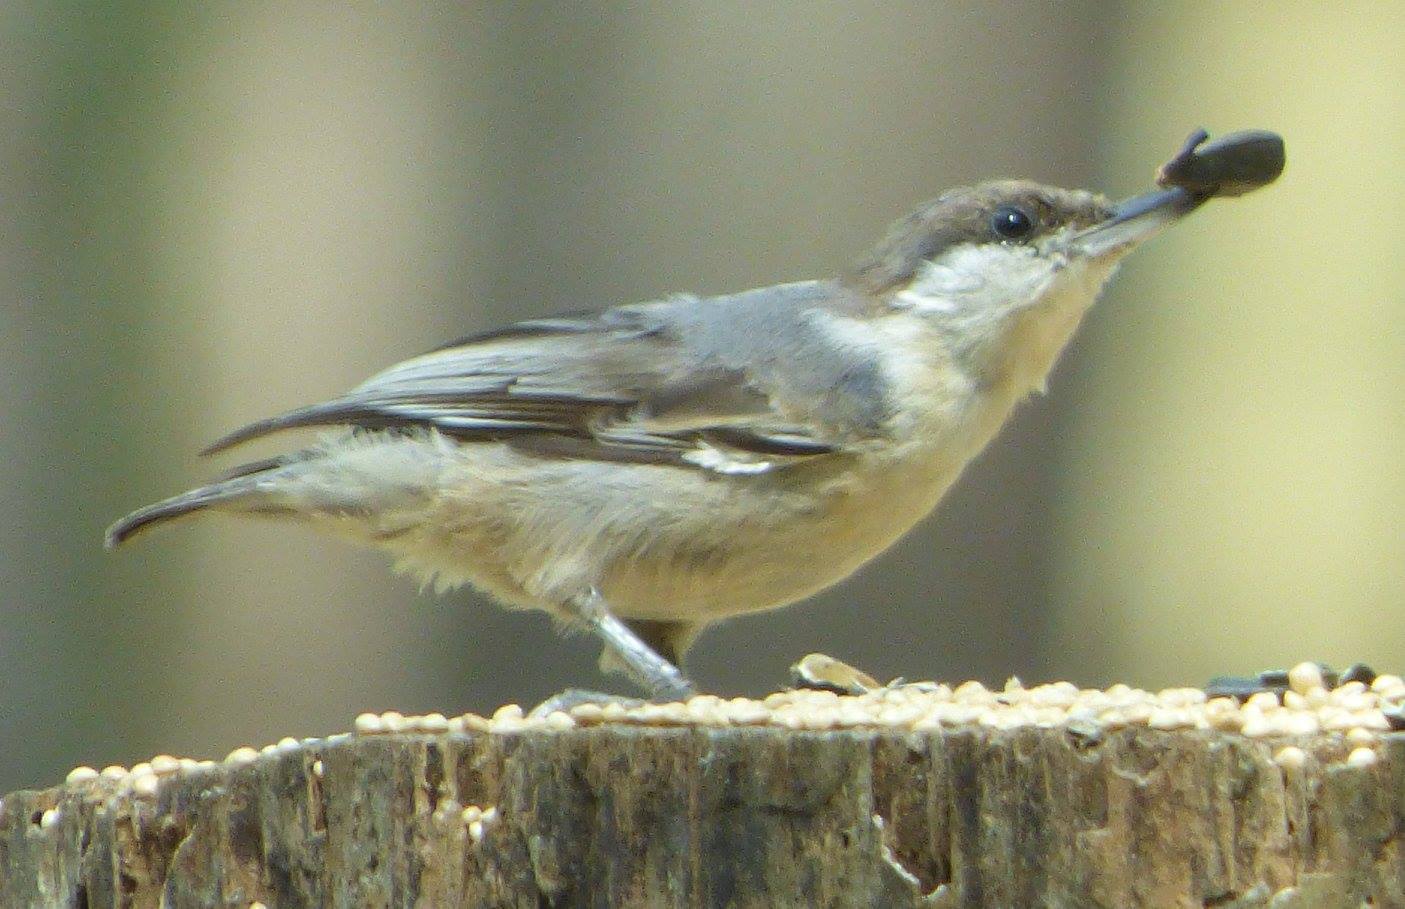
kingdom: Animalia
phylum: Chordata
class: Aves
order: Passeriformes
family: Sittidae
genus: Sitta
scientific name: Sitta pusilla
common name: Brown-headed nuthatch
